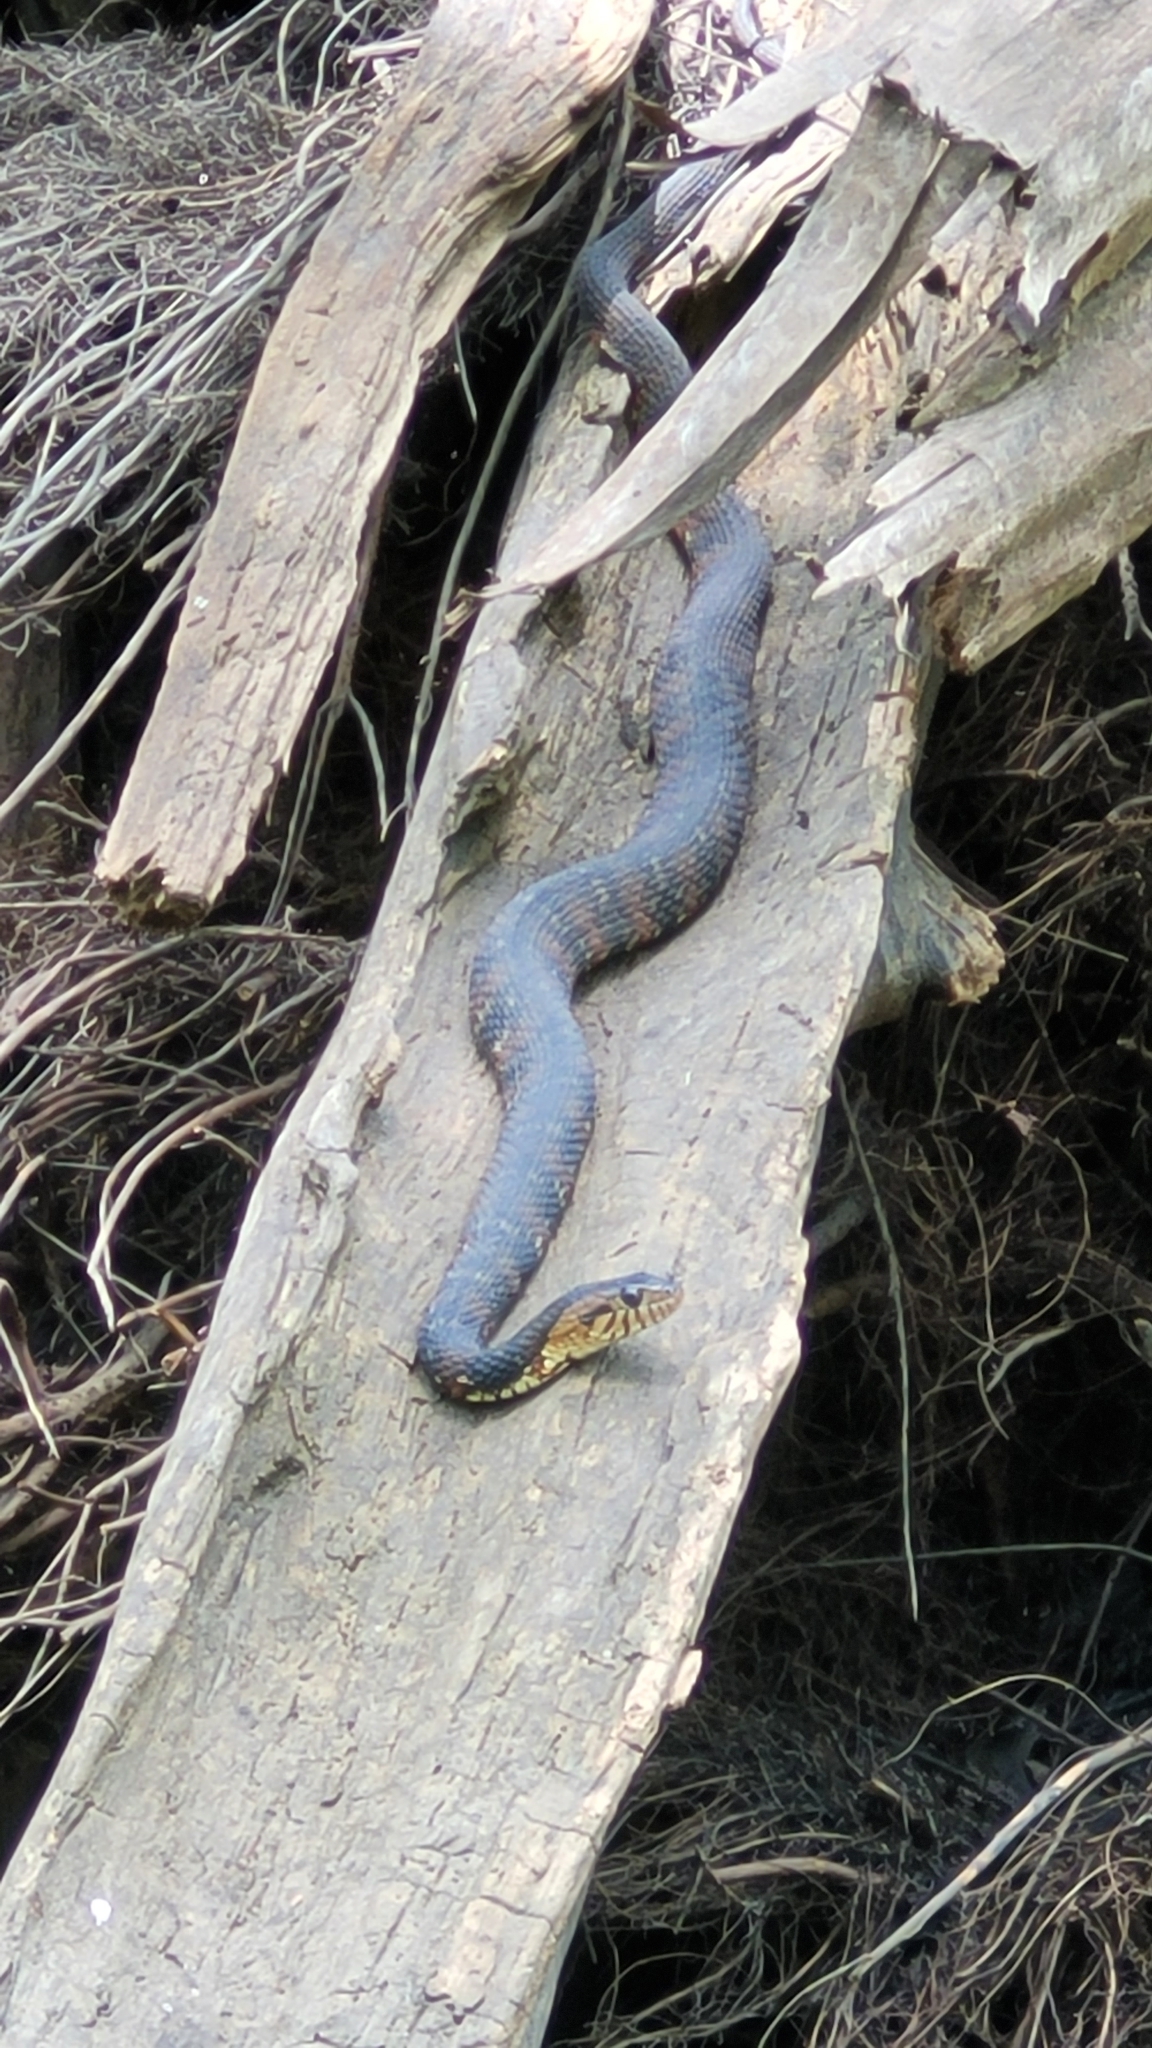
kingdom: Animalia
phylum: Chordata
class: Squamata
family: Colubridae
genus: Nerodia
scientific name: Nerodia fasciata
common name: Southern water snake
